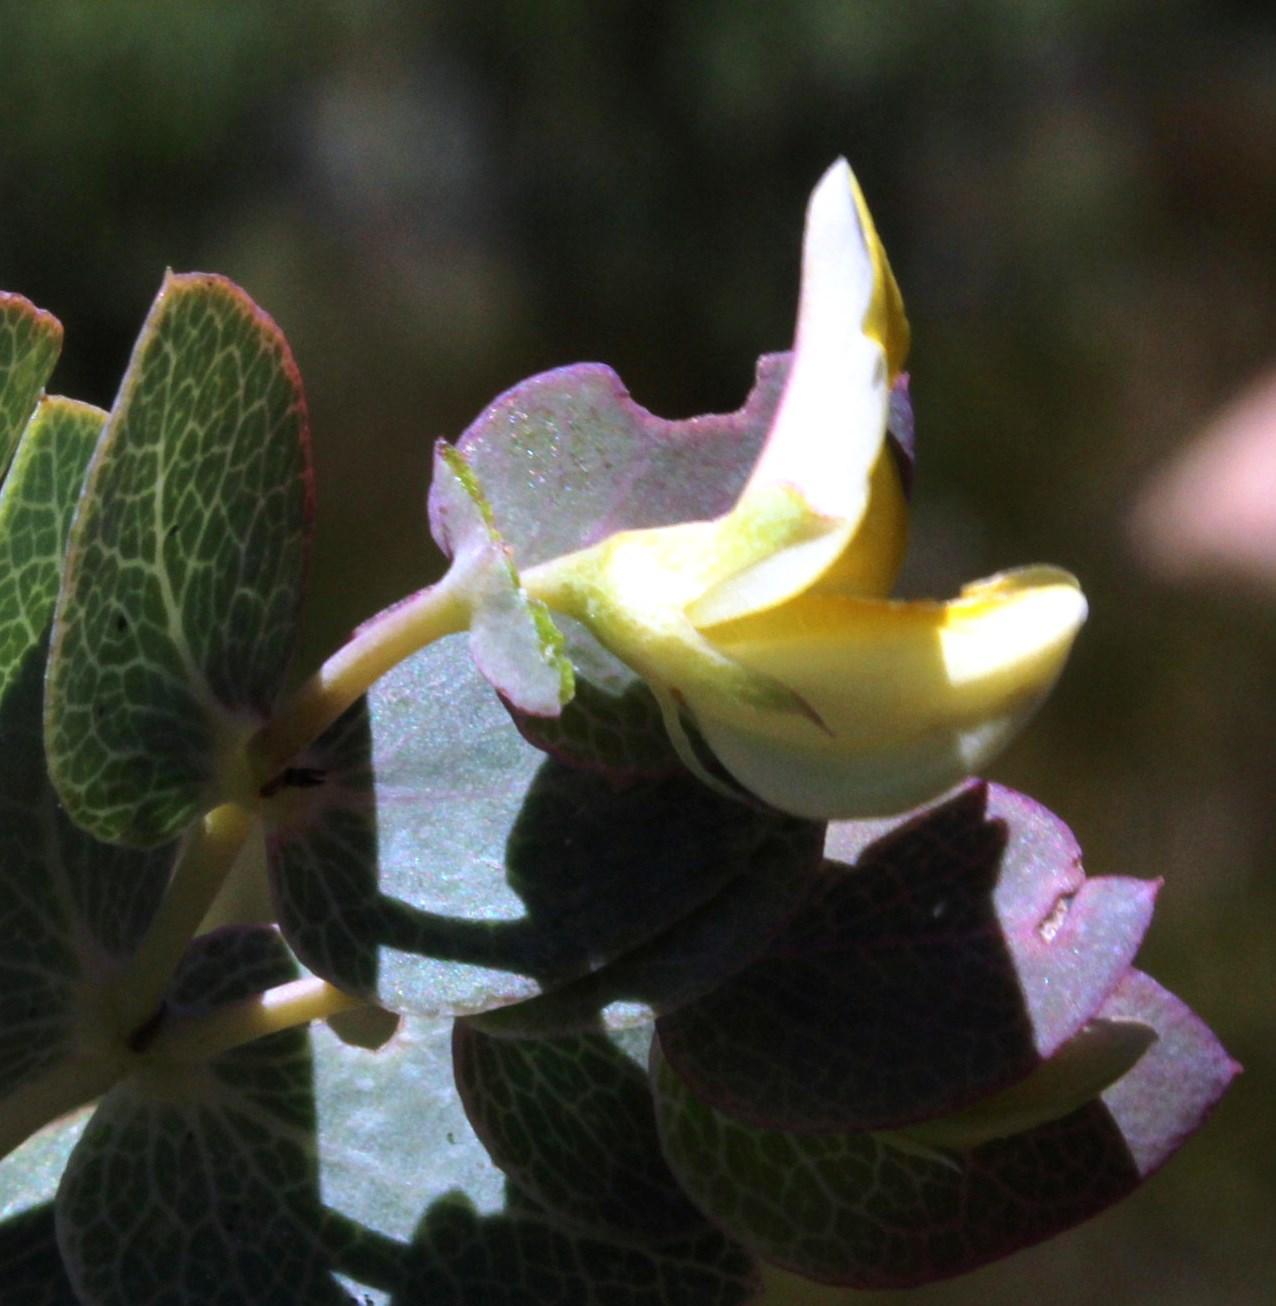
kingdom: Plantae
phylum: Tracheophyta
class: Magnoliopsida
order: Fabales
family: Fabaceae
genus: Rafnia
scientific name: Rafnia acuminata
